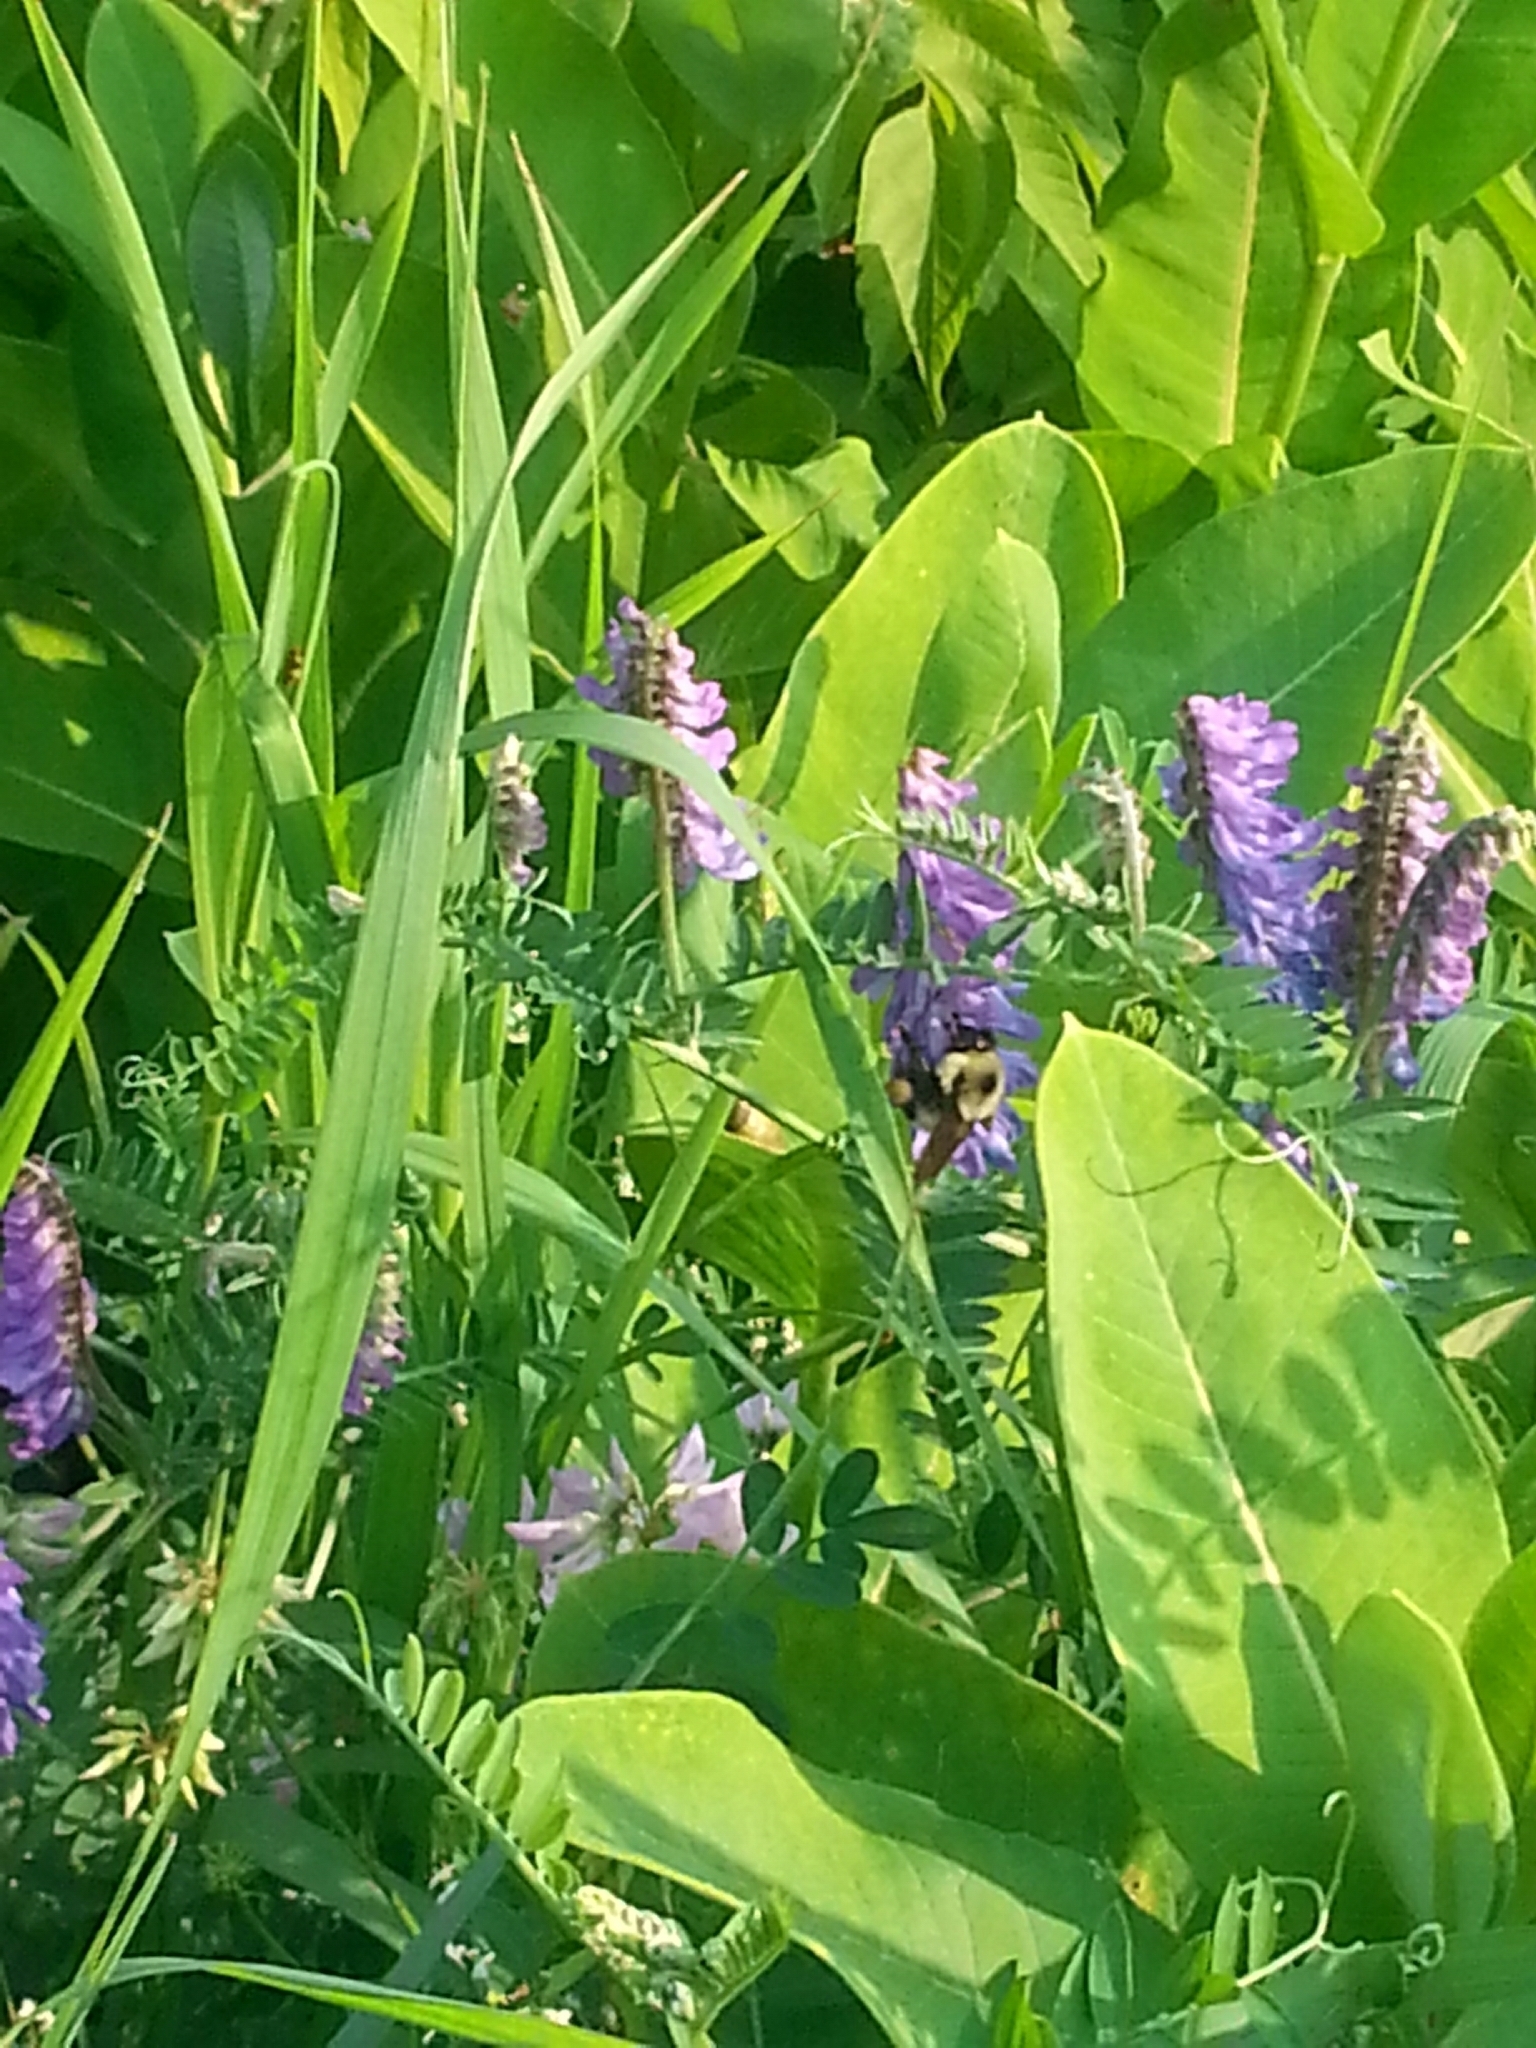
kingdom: Animalia
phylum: Arthropoda
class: Insecta
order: Hymenoptera
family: Apidae
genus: Bombus
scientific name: Bombus bimaculatus
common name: Two-spotted bumble bee
